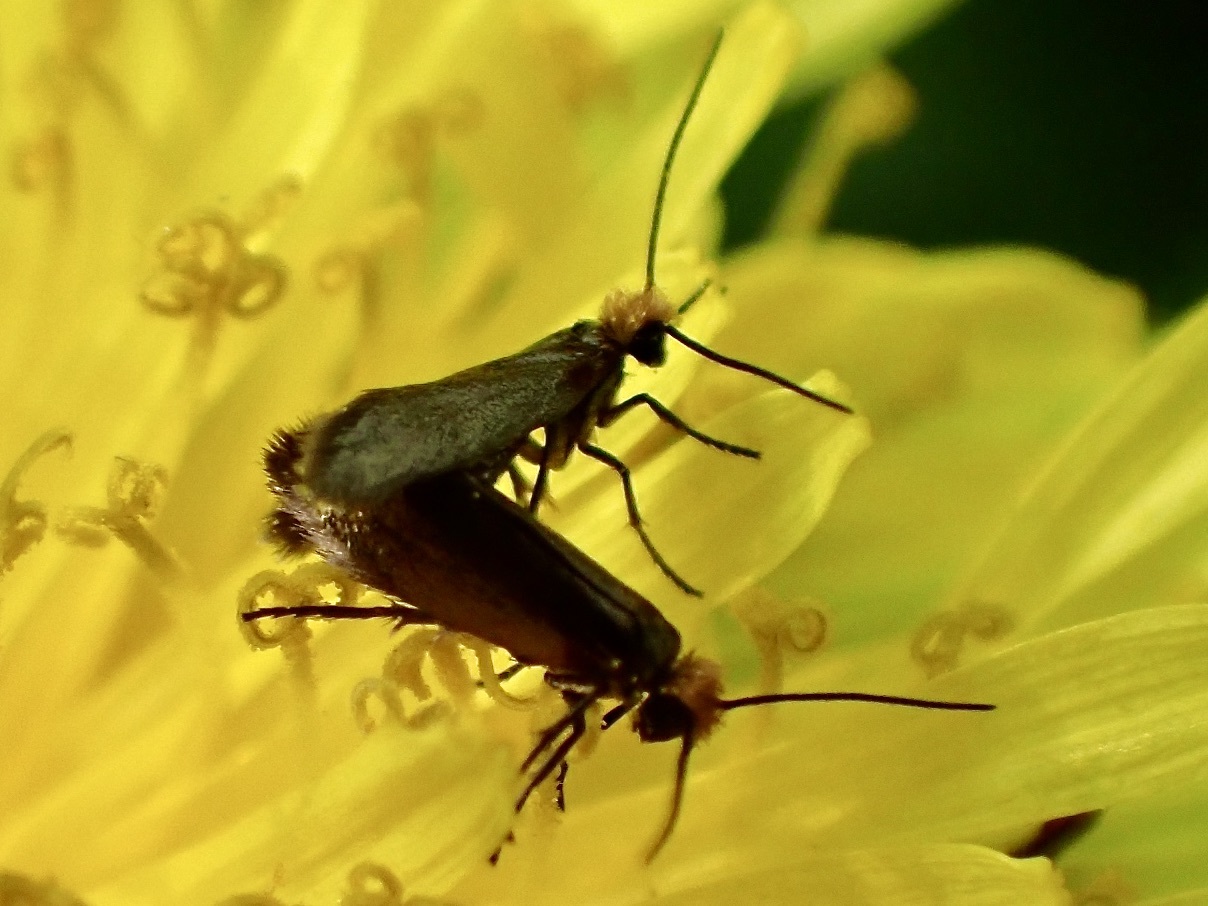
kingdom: Animalia
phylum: Arthropoda
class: Insecta
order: Lepidoptera
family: Micropterigidae
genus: Micropterix
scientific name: Micropterix calthella
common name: Plain gold
